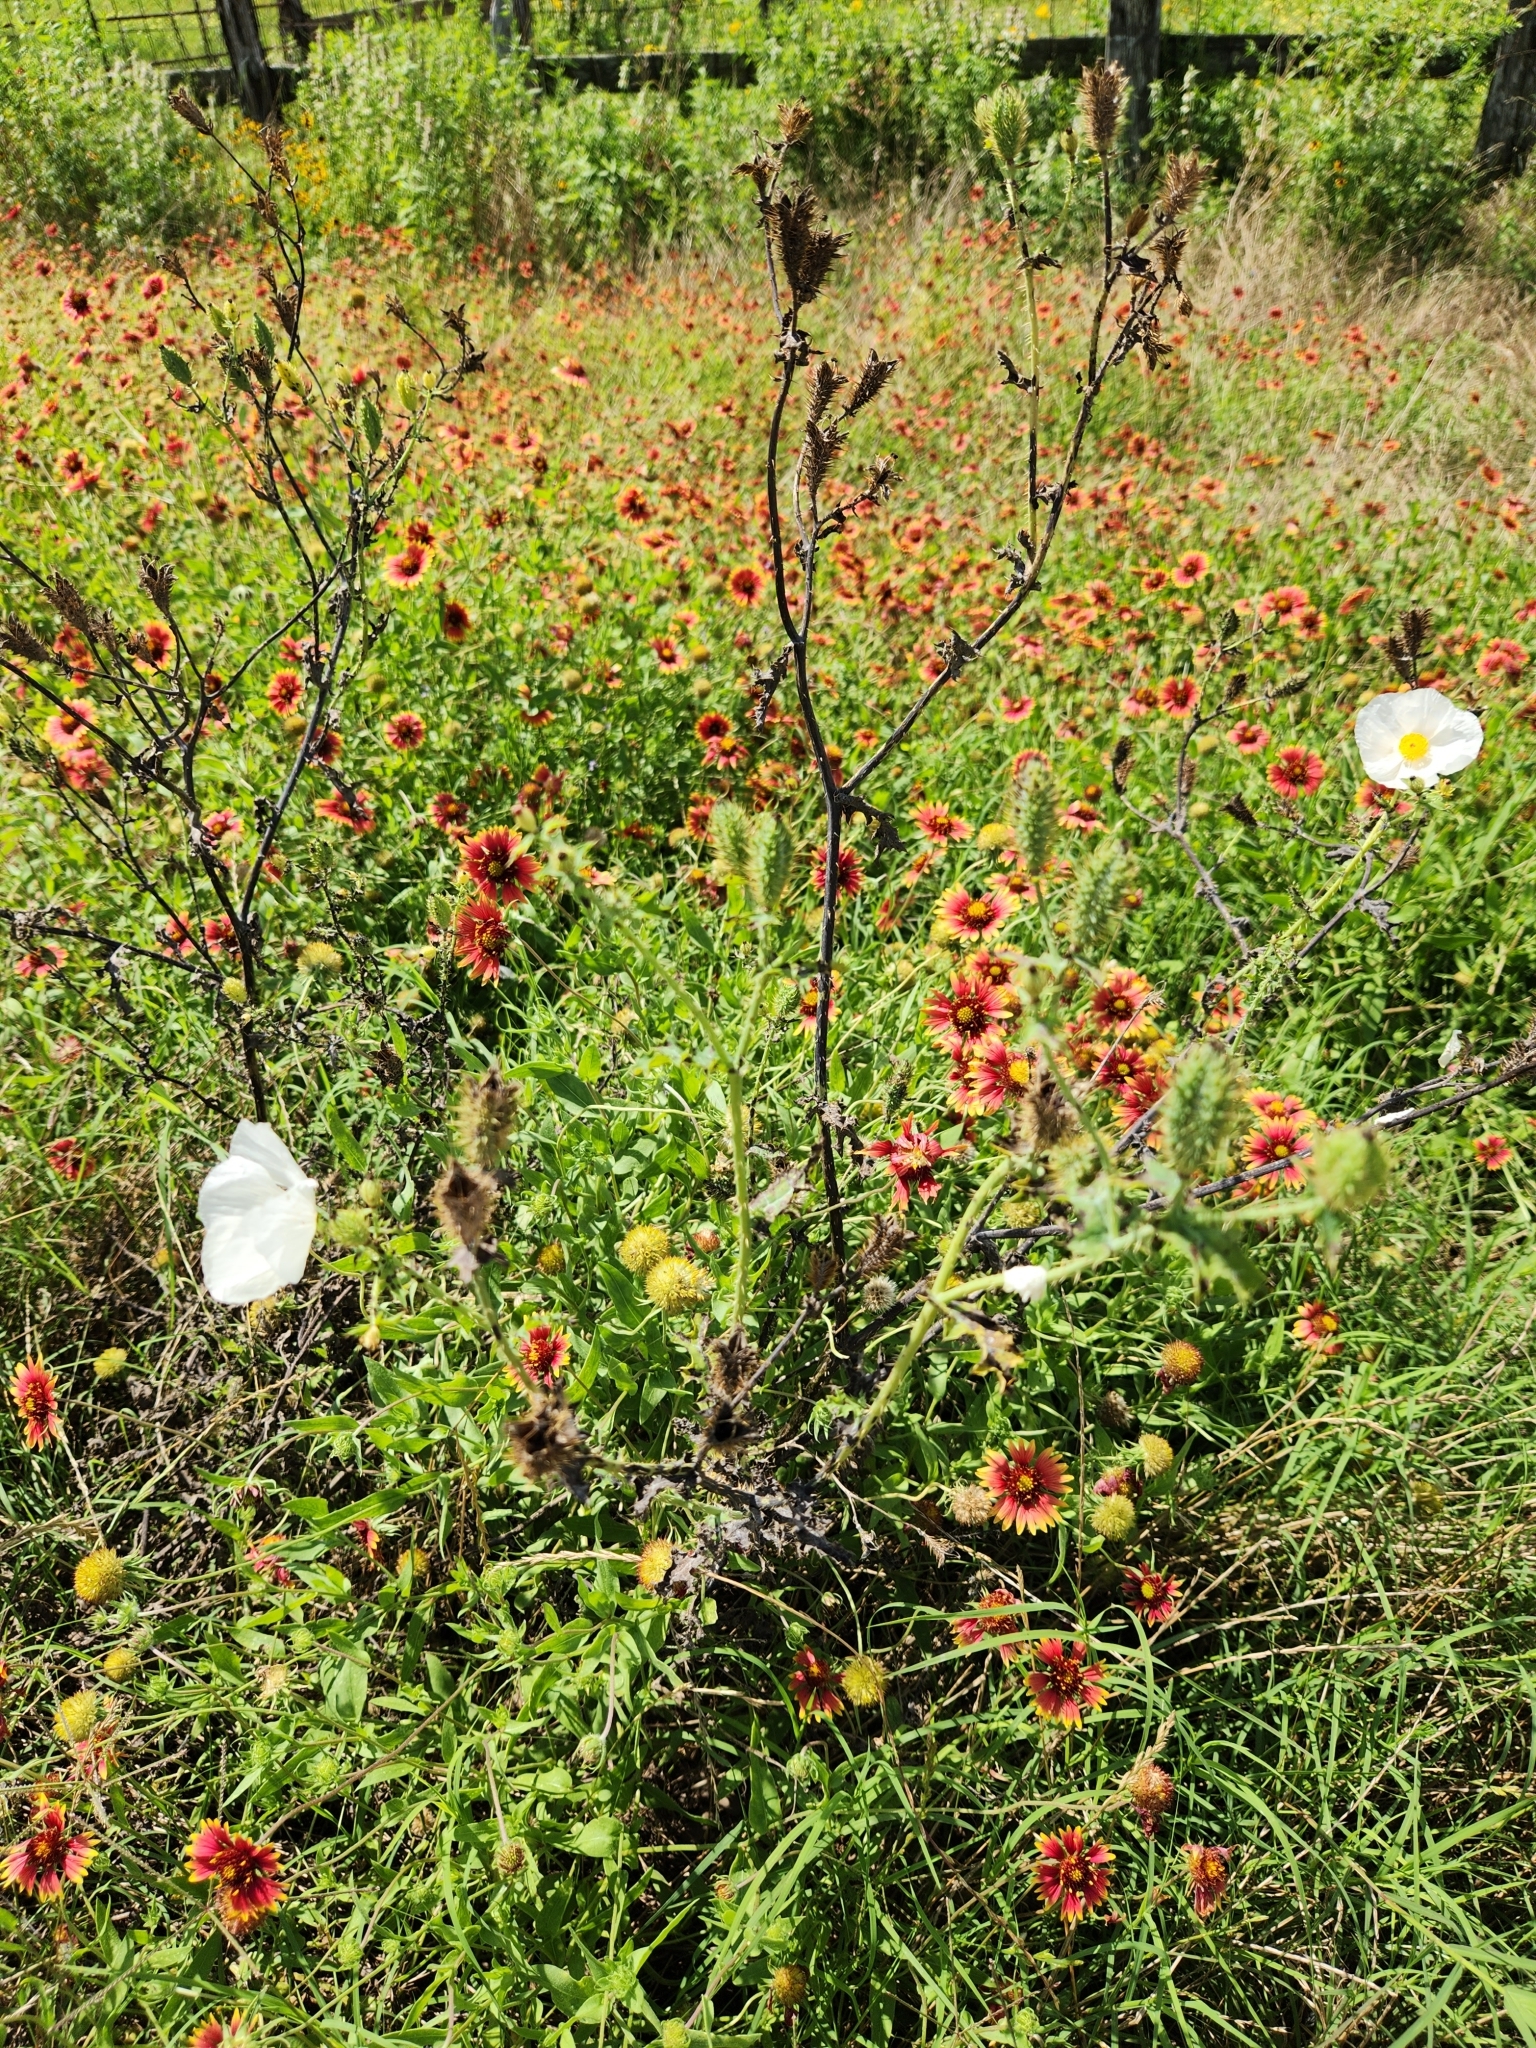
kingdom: Plantae
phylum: Tracheophyta
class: Magnoliopsida
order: Ranunculales
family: Papaveraceae
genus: Argemone
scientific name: Argemone albiflora
